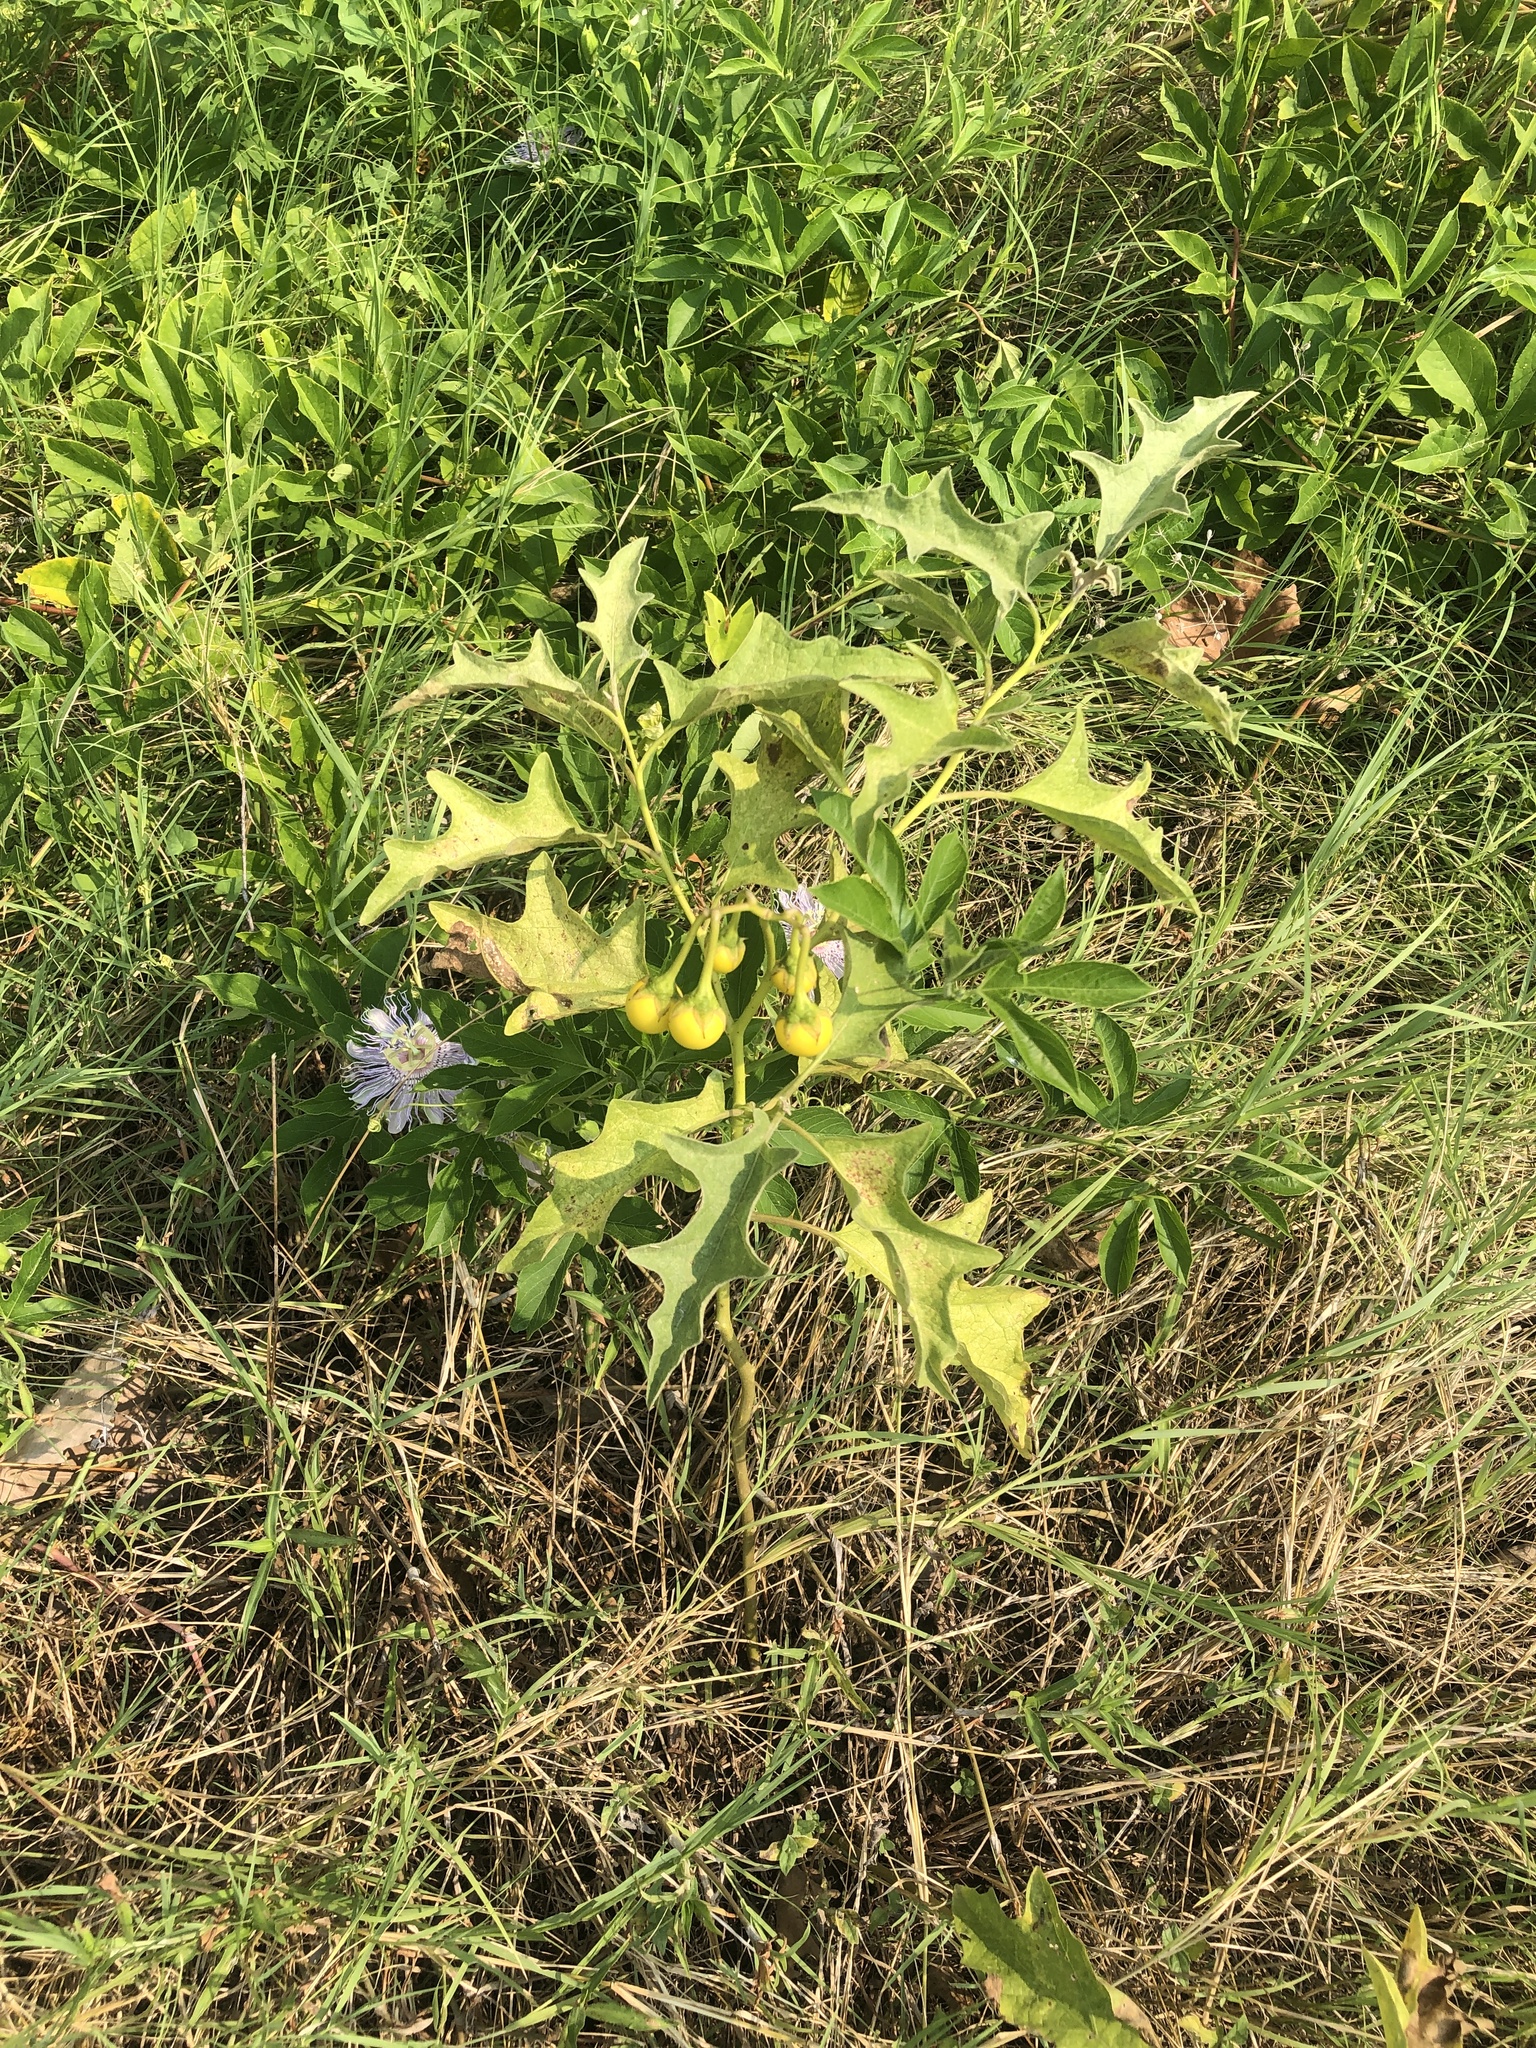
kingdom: Plantae
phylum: Tracheophyta
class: Magnoliopsida
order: Solanales
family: Solanaceae
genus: Solanum
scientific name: Solanum dimidiatum
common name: Carolina horse-nettle
